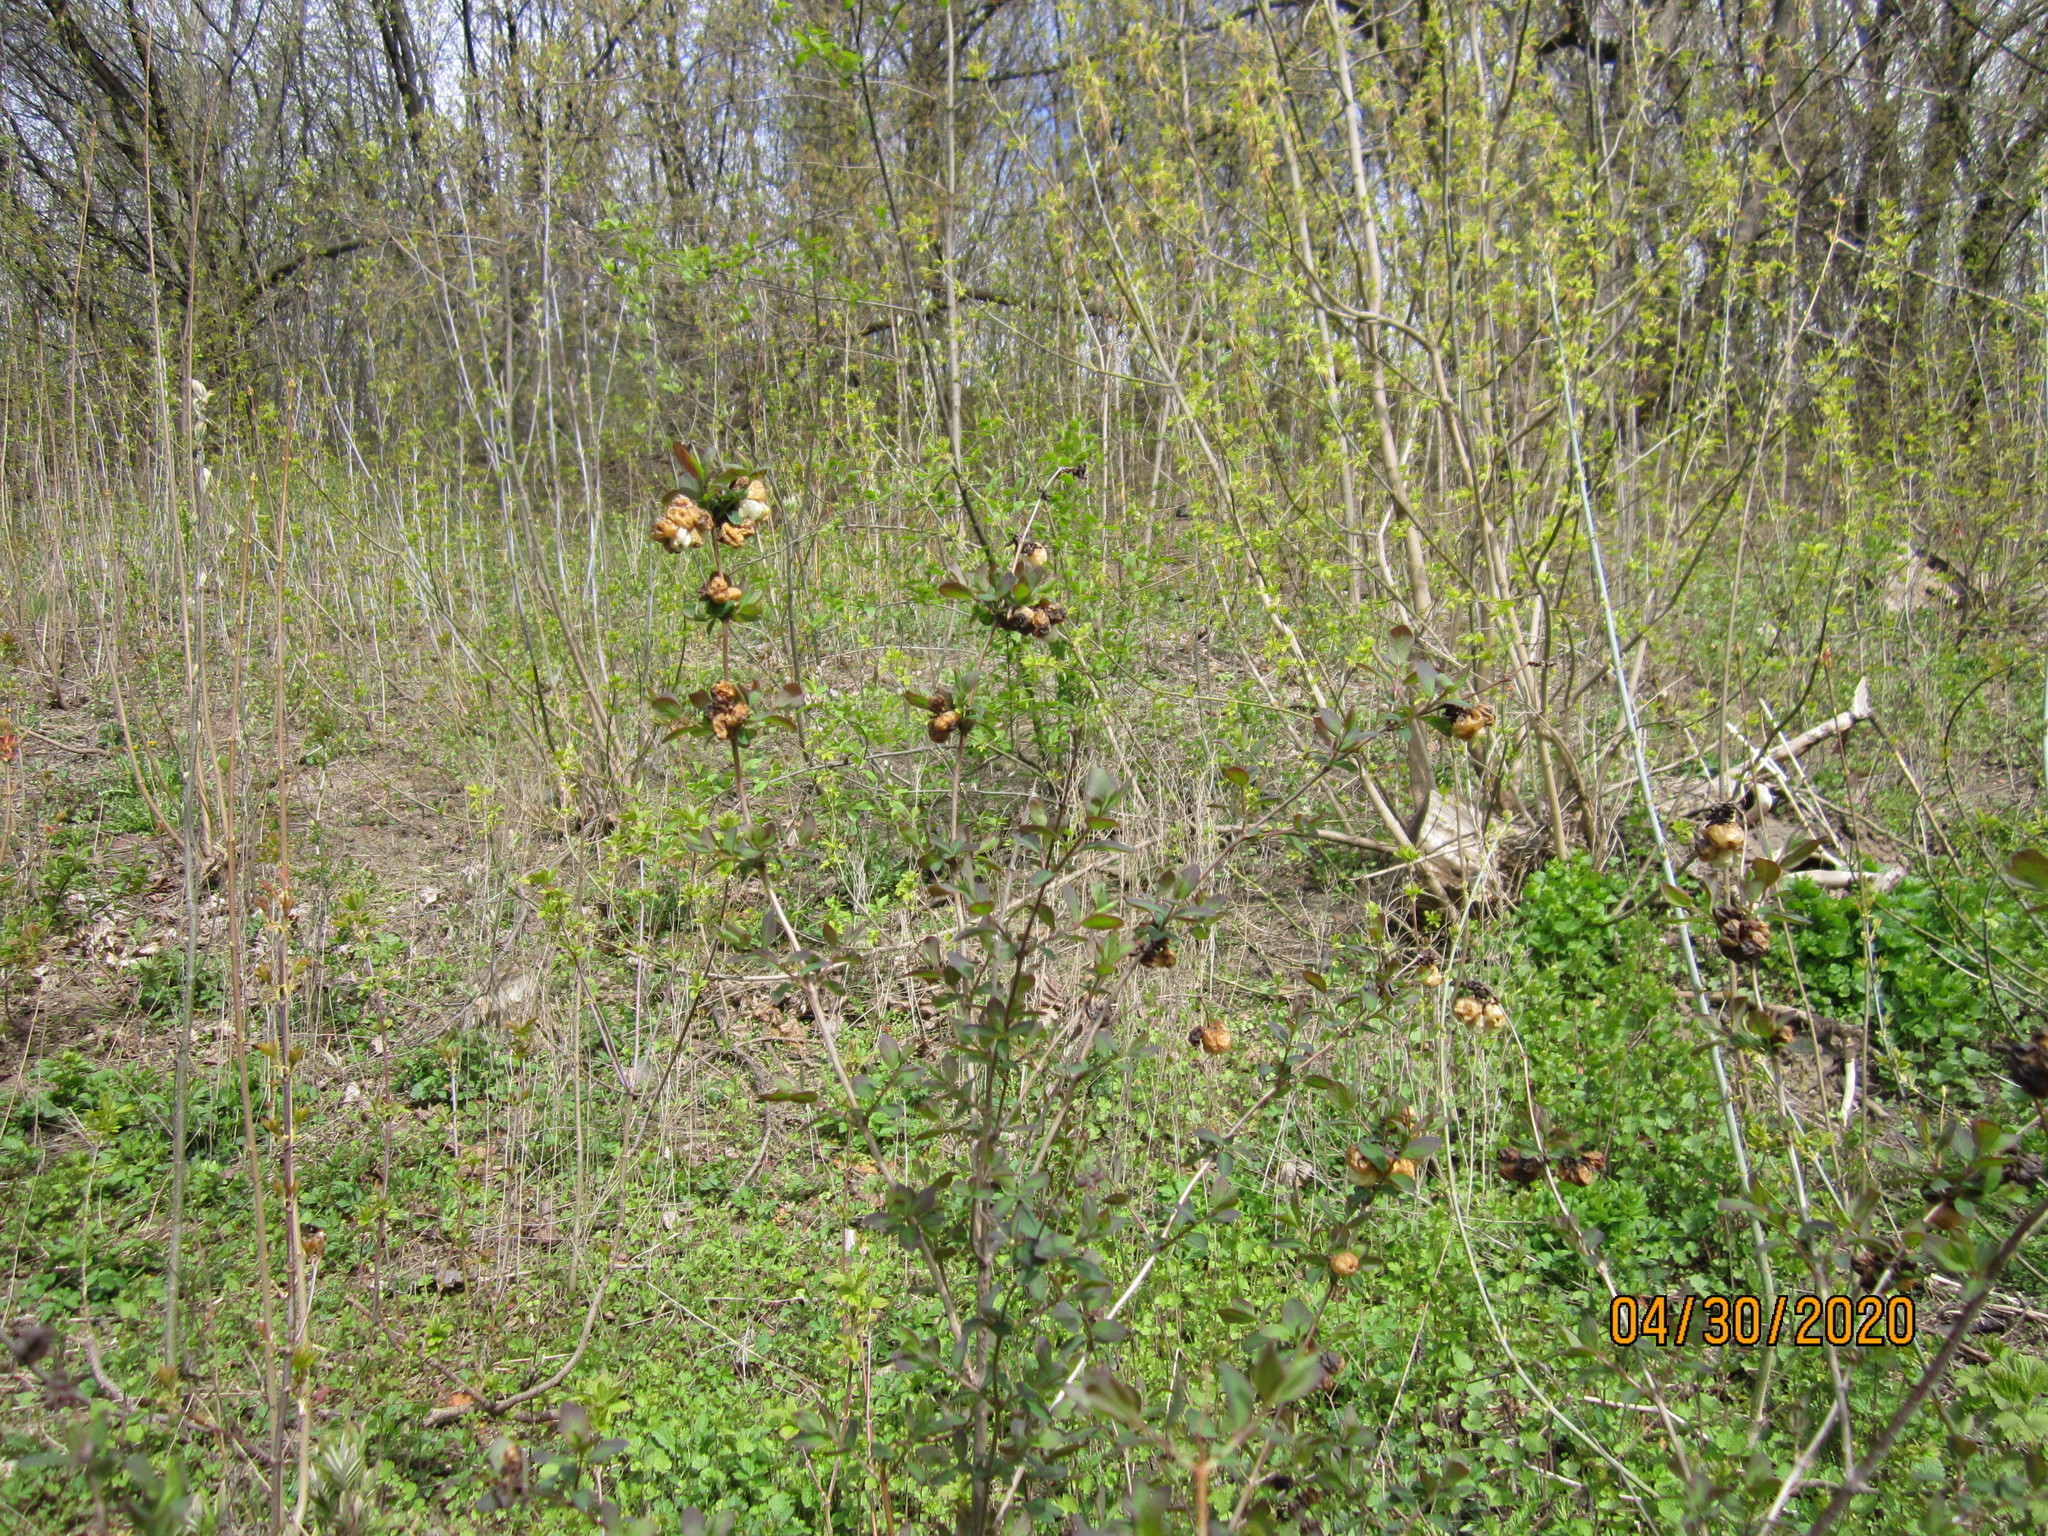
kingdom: Plantae
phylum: Tracheophyta
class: Magnoliopsida
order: Dipsacales
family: Caprifoliaceae
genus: Symphoricarpos
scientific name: Symphoricarpos albus
